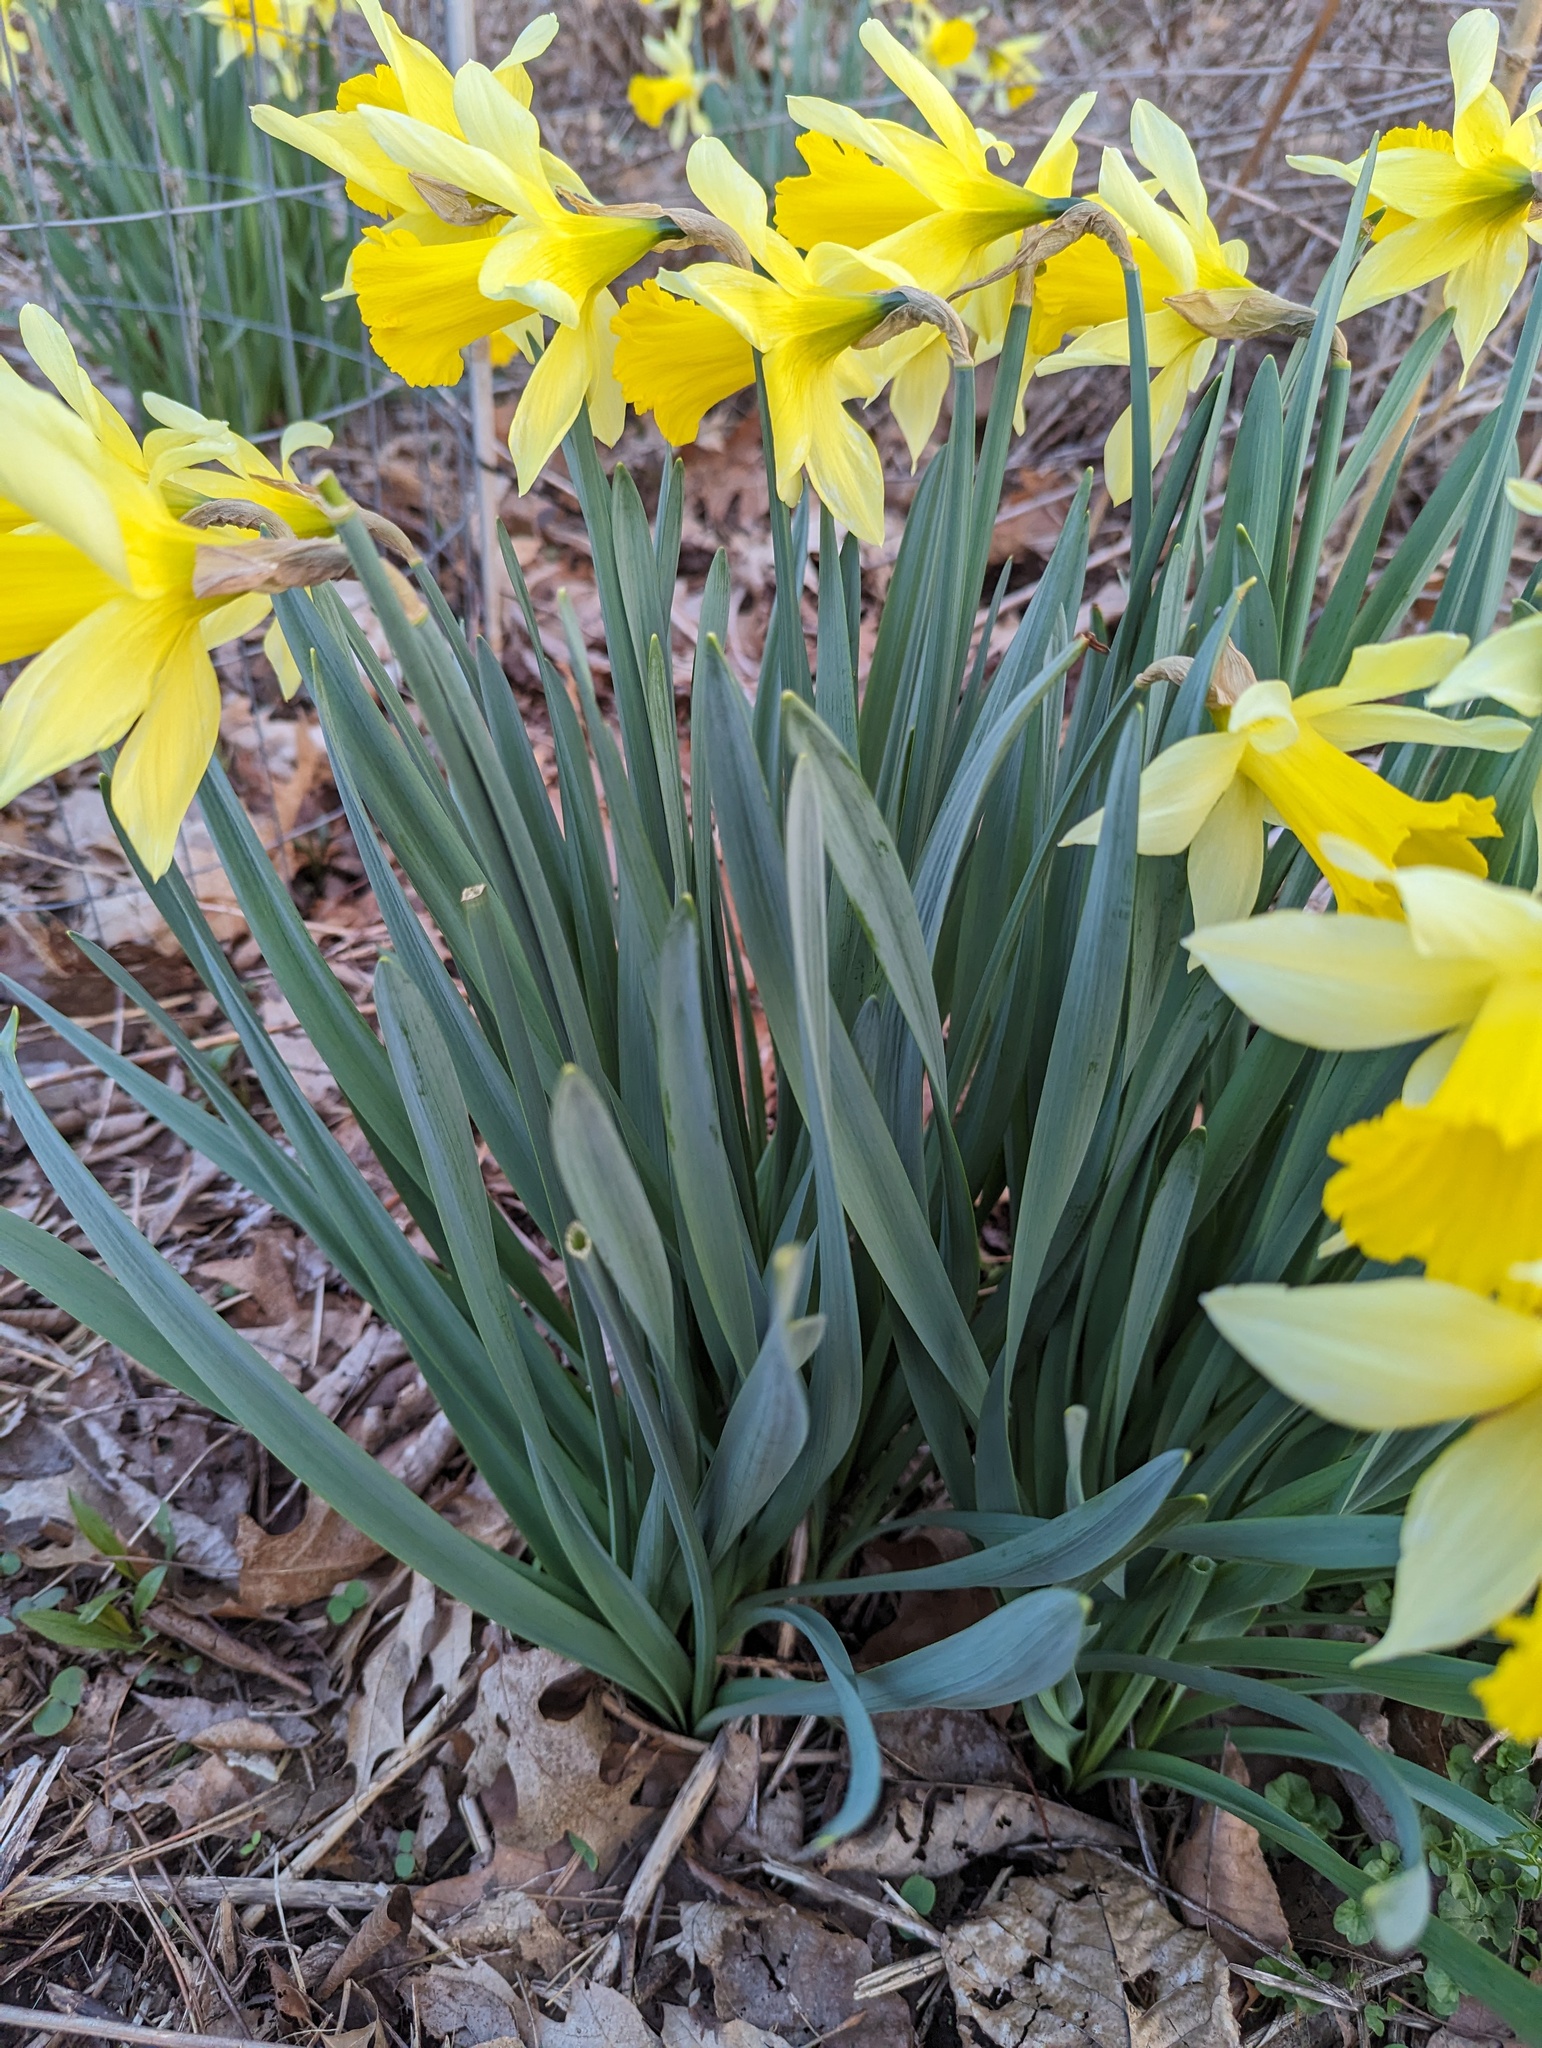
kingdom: Plantae
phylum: Tracheophyta
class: Liliopsida
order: Asparagales
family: Amaryllidaceae
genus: Narcissus
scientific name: Narcissus pseudonarcissus
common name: Daffodil
